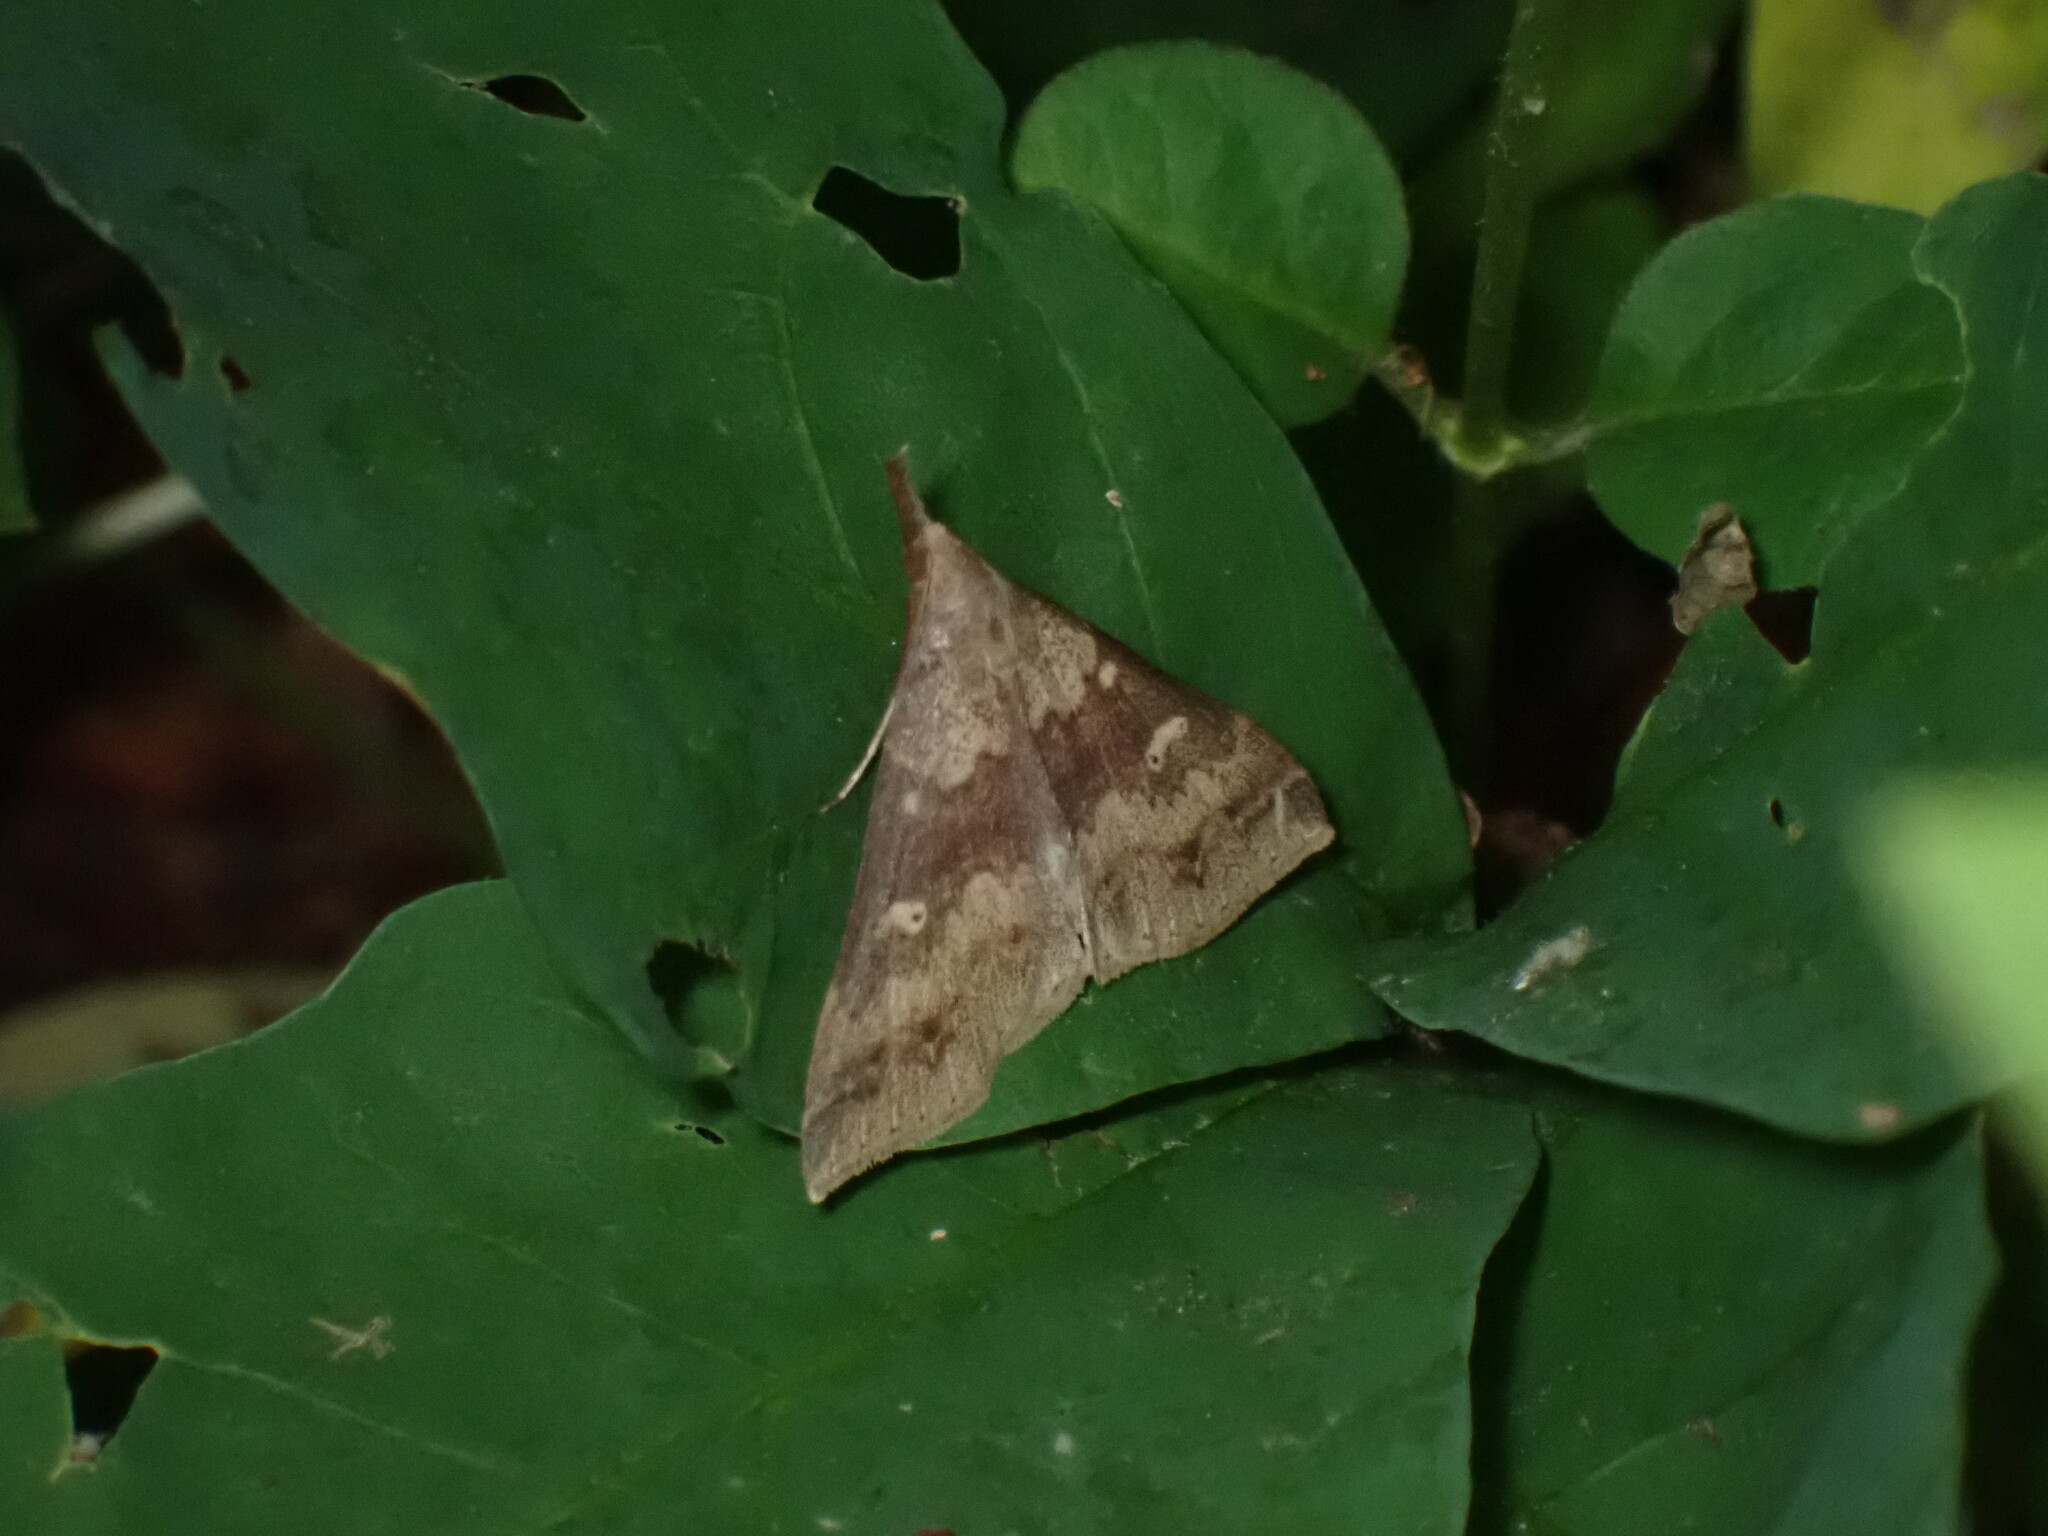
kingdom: Animalia
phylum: Arthropoda
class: Insecta
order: Lepidoptera
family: Erebidae
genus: Renia
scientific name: Renia discoloralis
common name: Discolored renia moth
